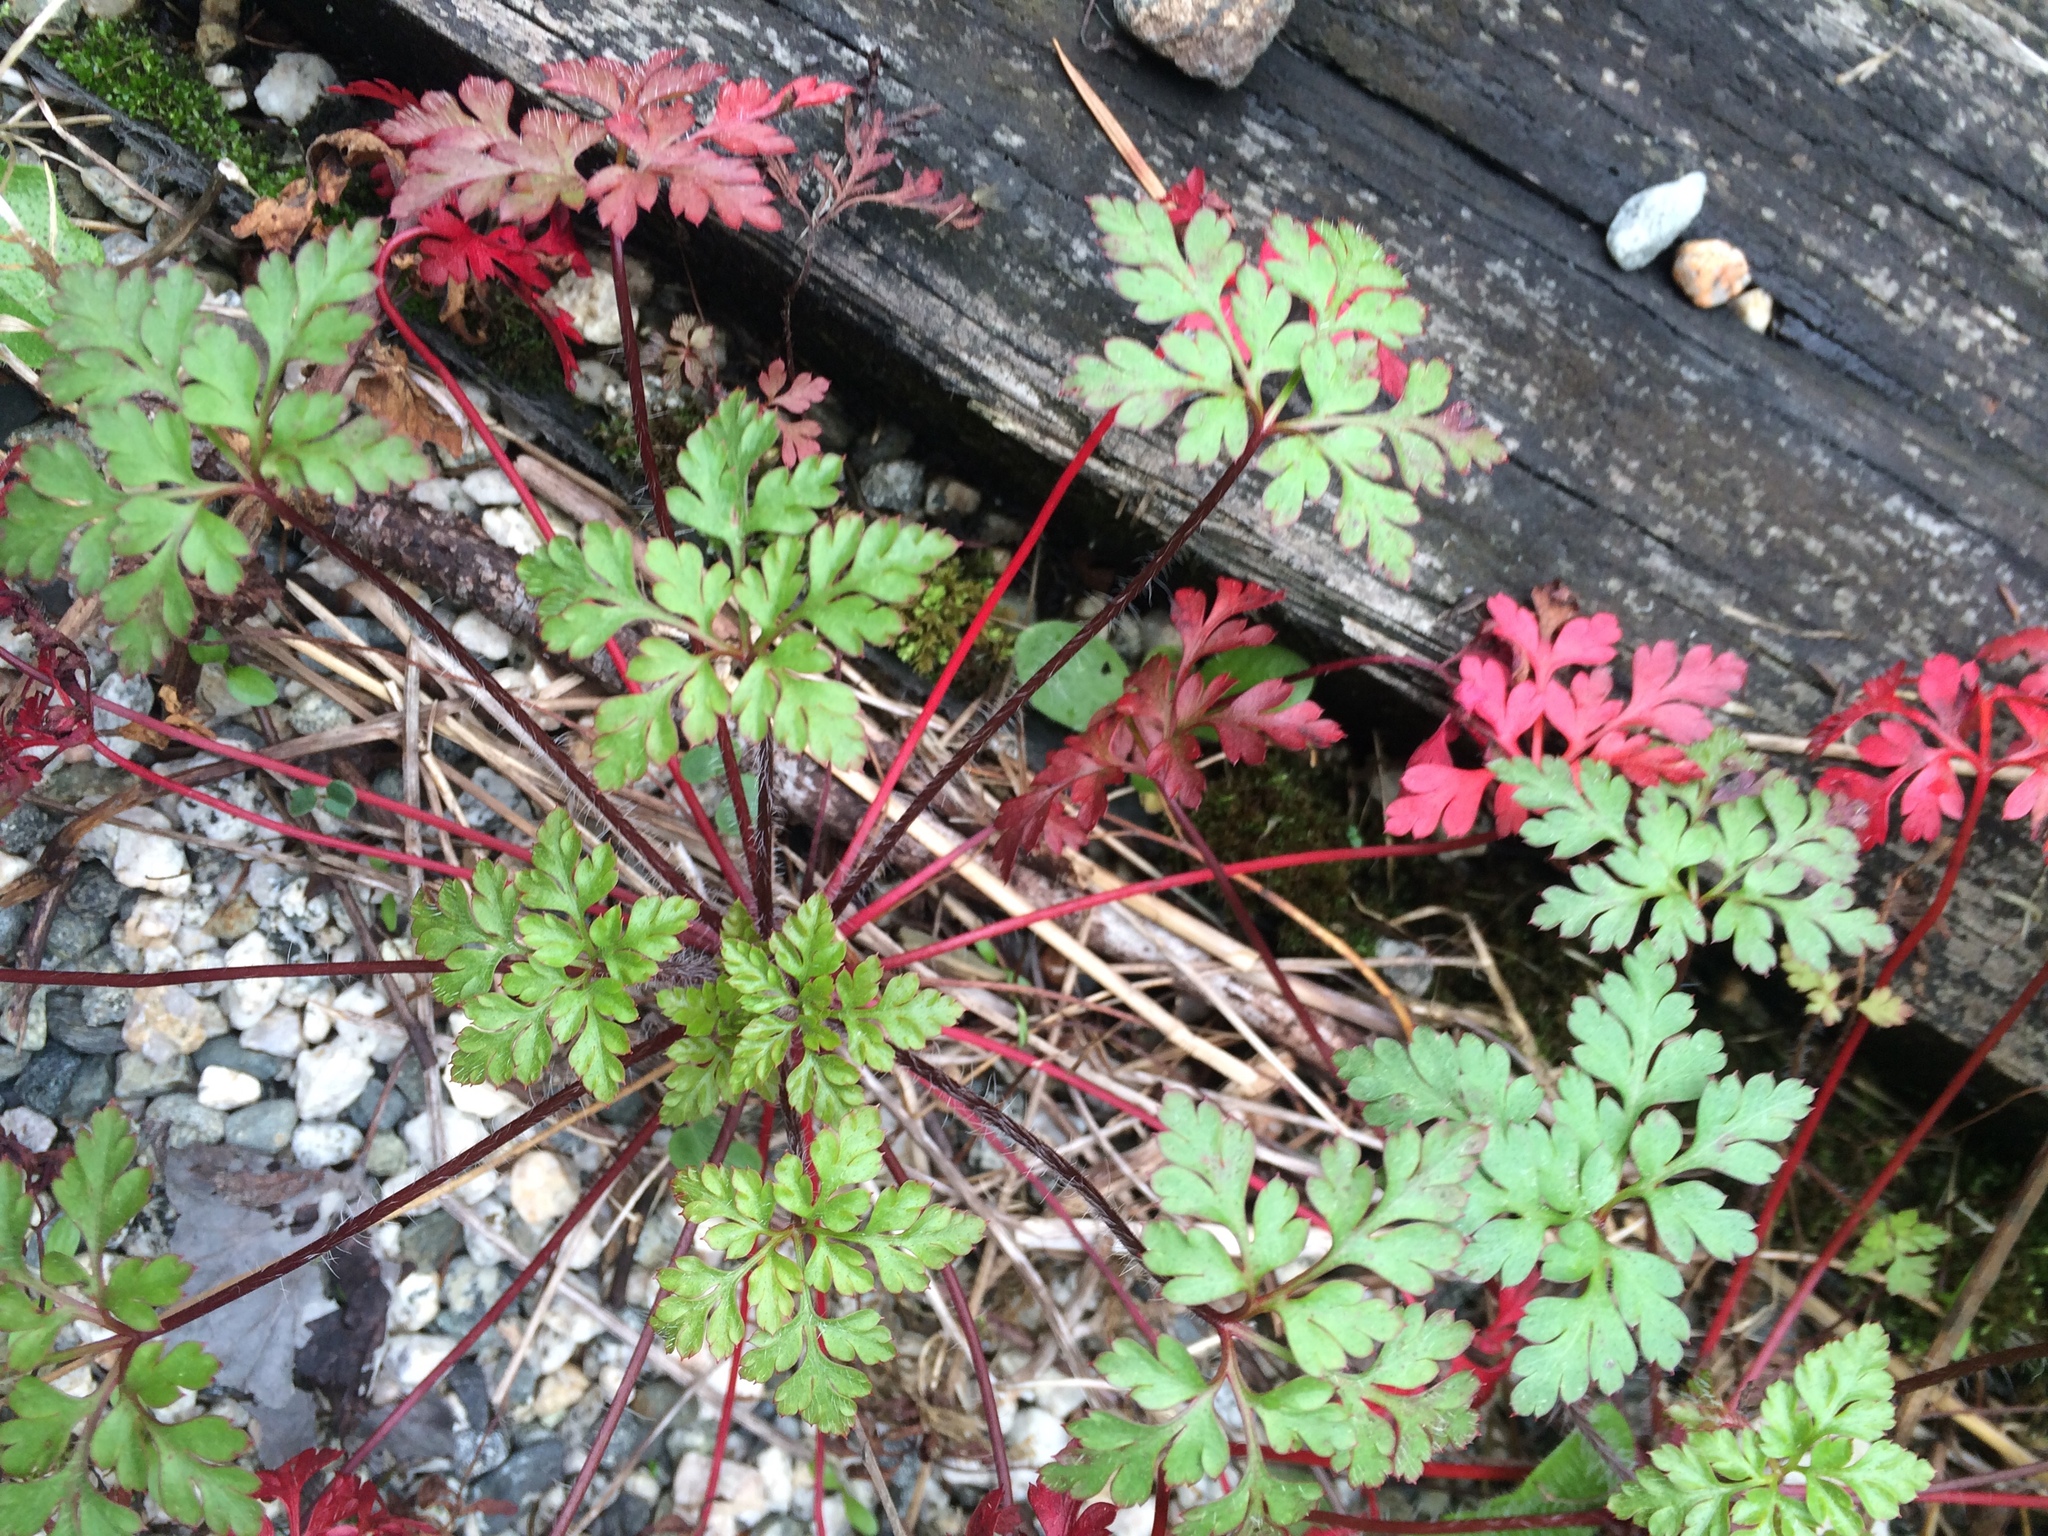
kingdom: Plantae
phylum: Tracheophyta
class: Magnoliopsida
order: Geraniales
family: Geraniaceae
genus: Geranium
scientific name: Geranium robertianum
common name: Herb-robert
